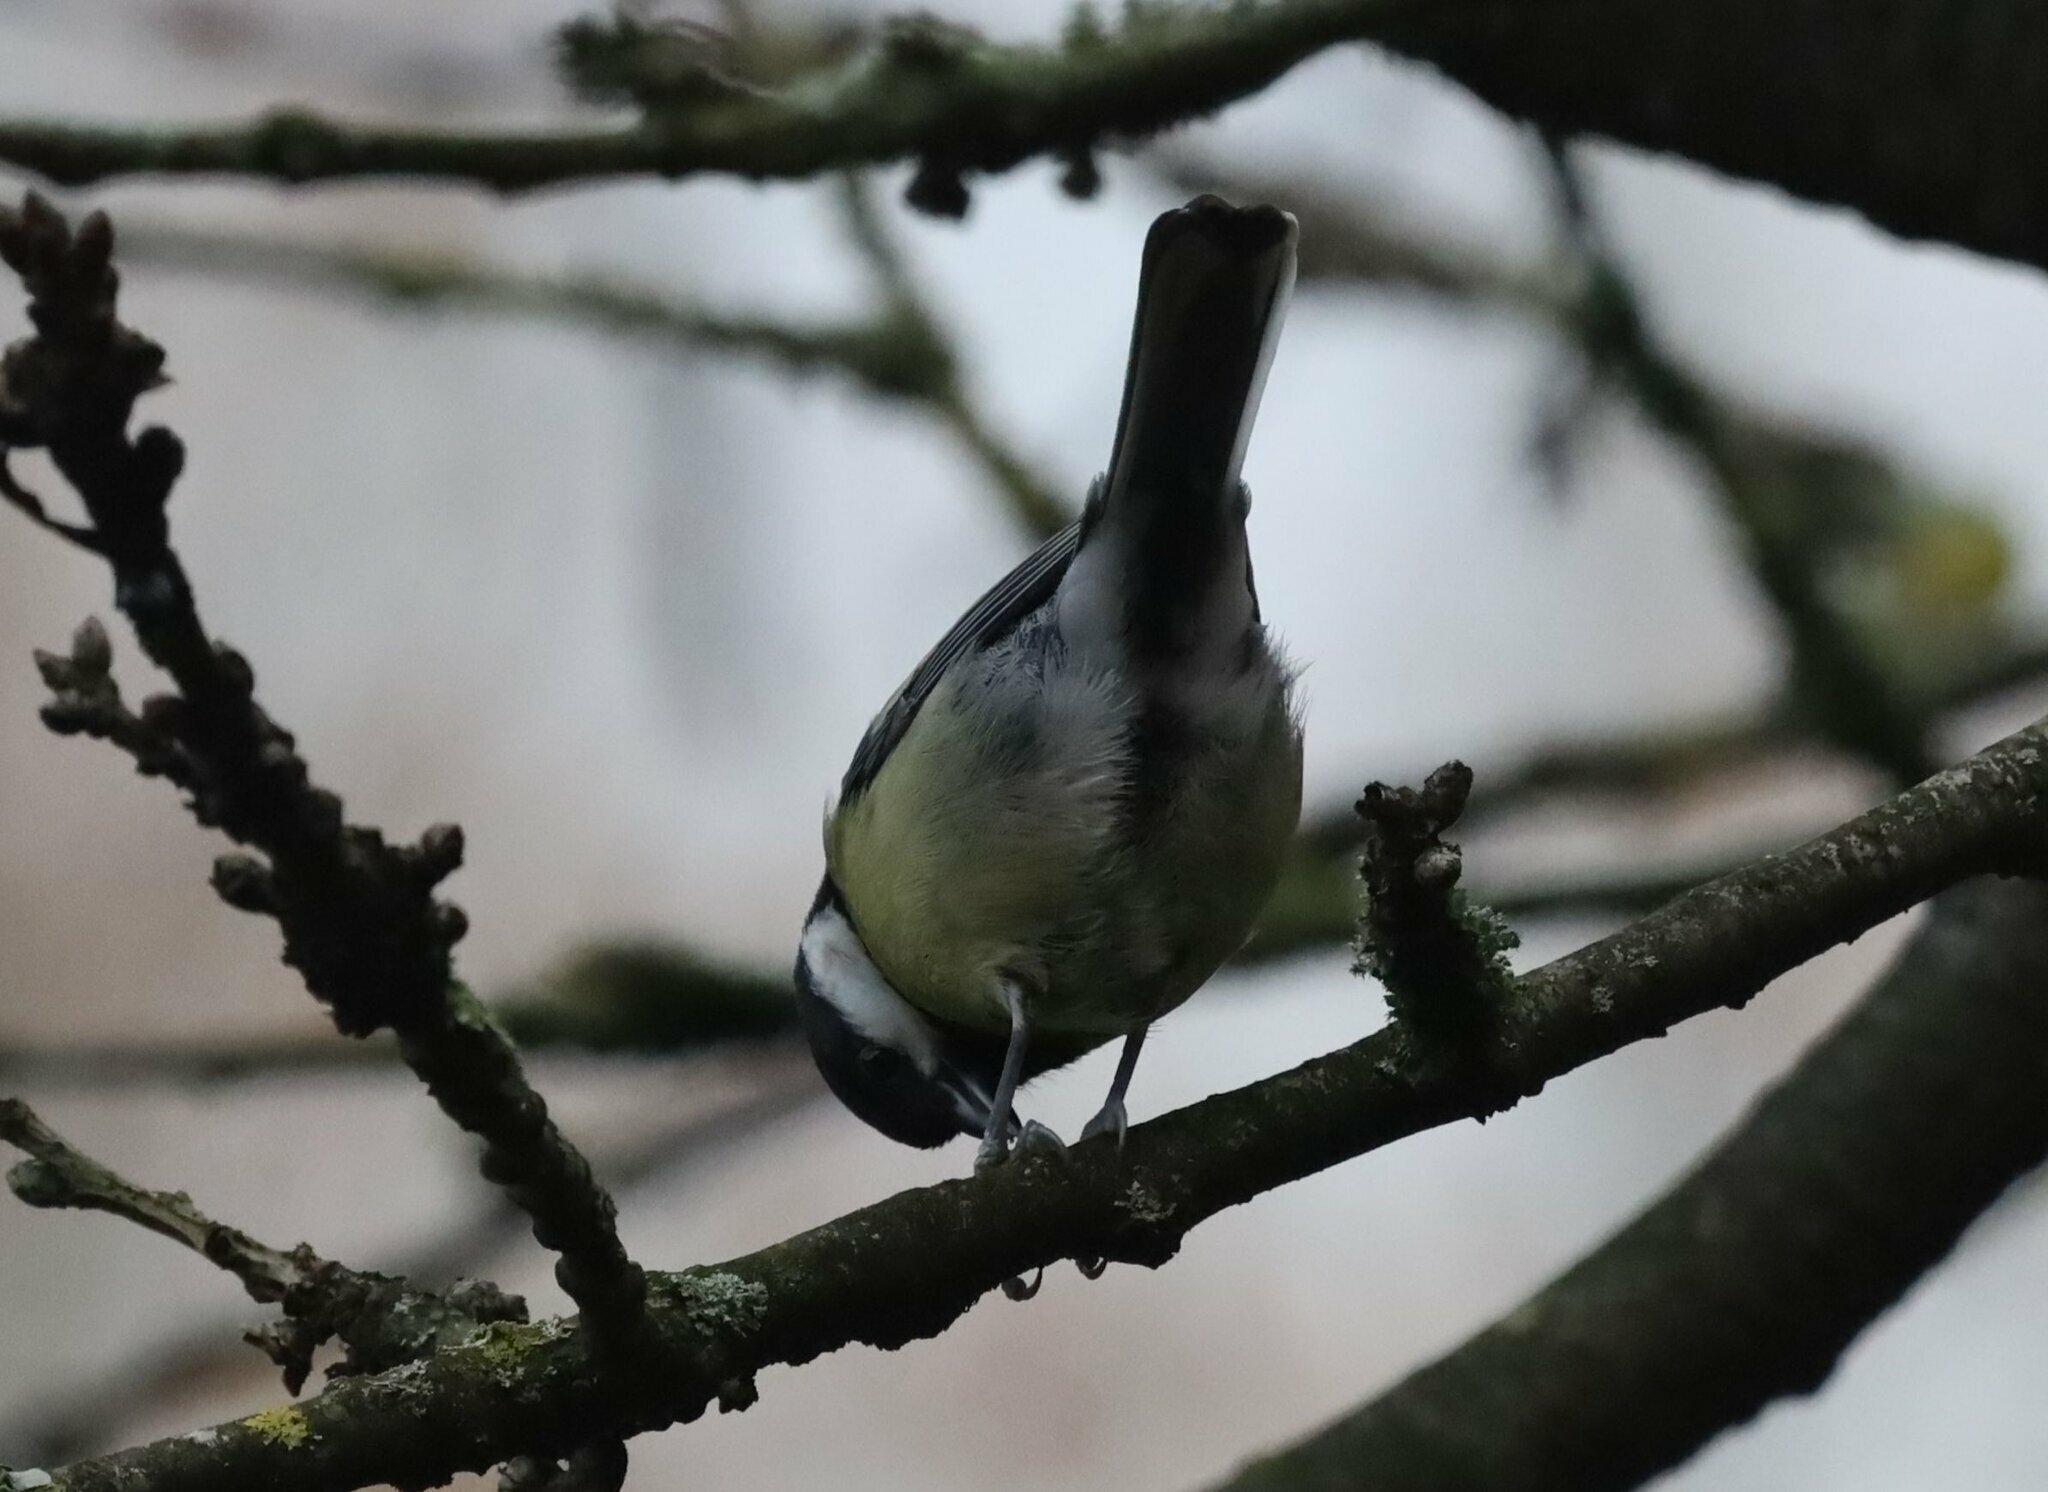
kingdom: Animalia
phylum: Chordata
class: Aves
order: Passeriformes
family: Paridae
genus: Parus
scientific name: Parus major
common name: Great tit
